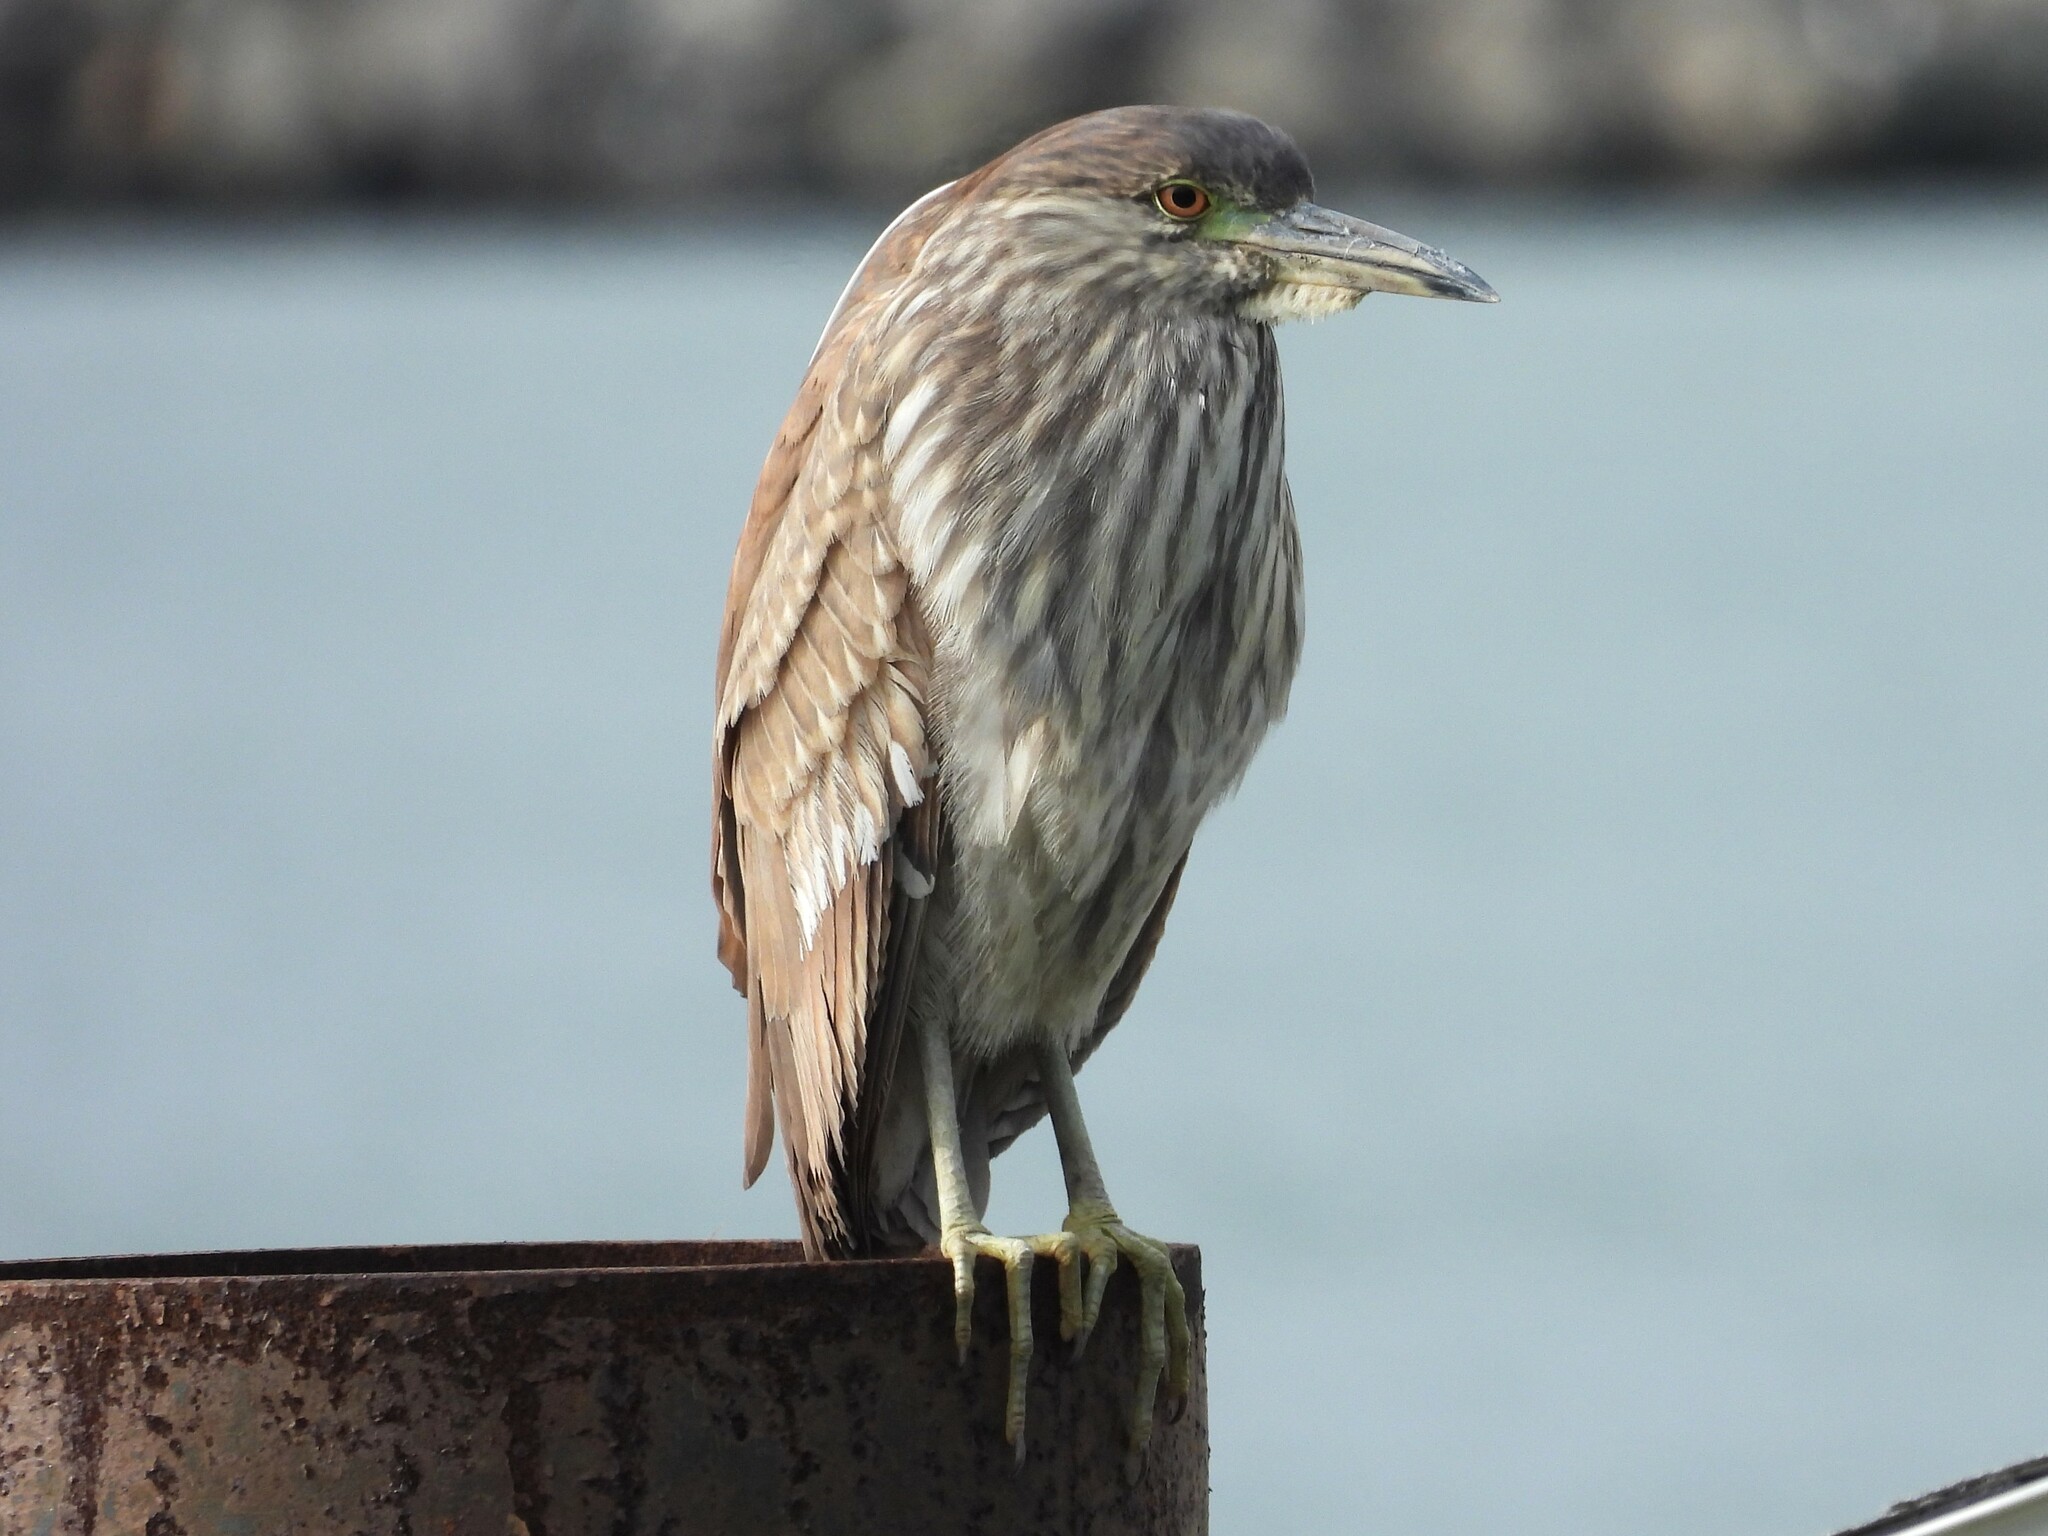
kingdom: Animalia
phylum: Chordata
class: Aves
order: Pelecaniformes
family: Ardeidae
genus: Nycticorax
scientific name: Nycticorax nycticorax
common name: Black-crowned night heron
